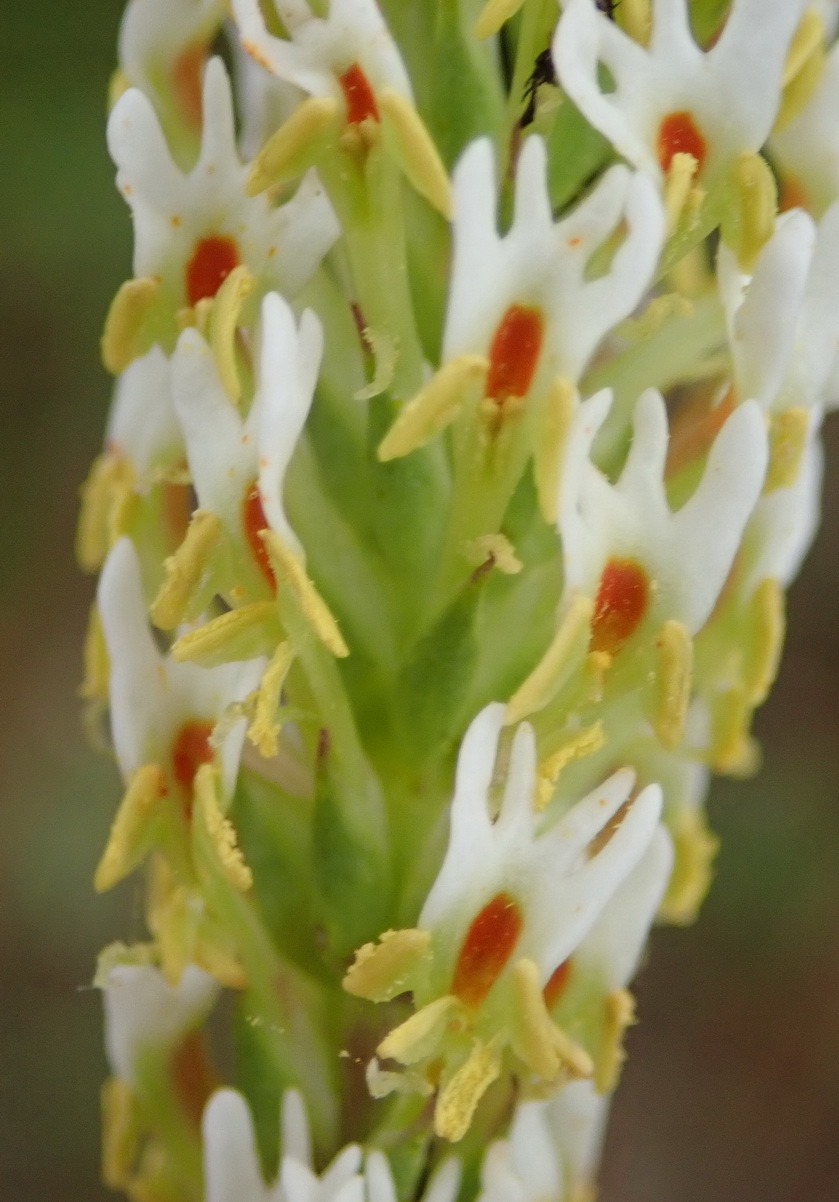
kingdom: Plantae
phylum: Tracheophyta
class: Magnoliopsida
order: Lamiales
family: Scrophulariaceae
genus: Hebenstretia
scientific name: Hebenstretia integrifolia
